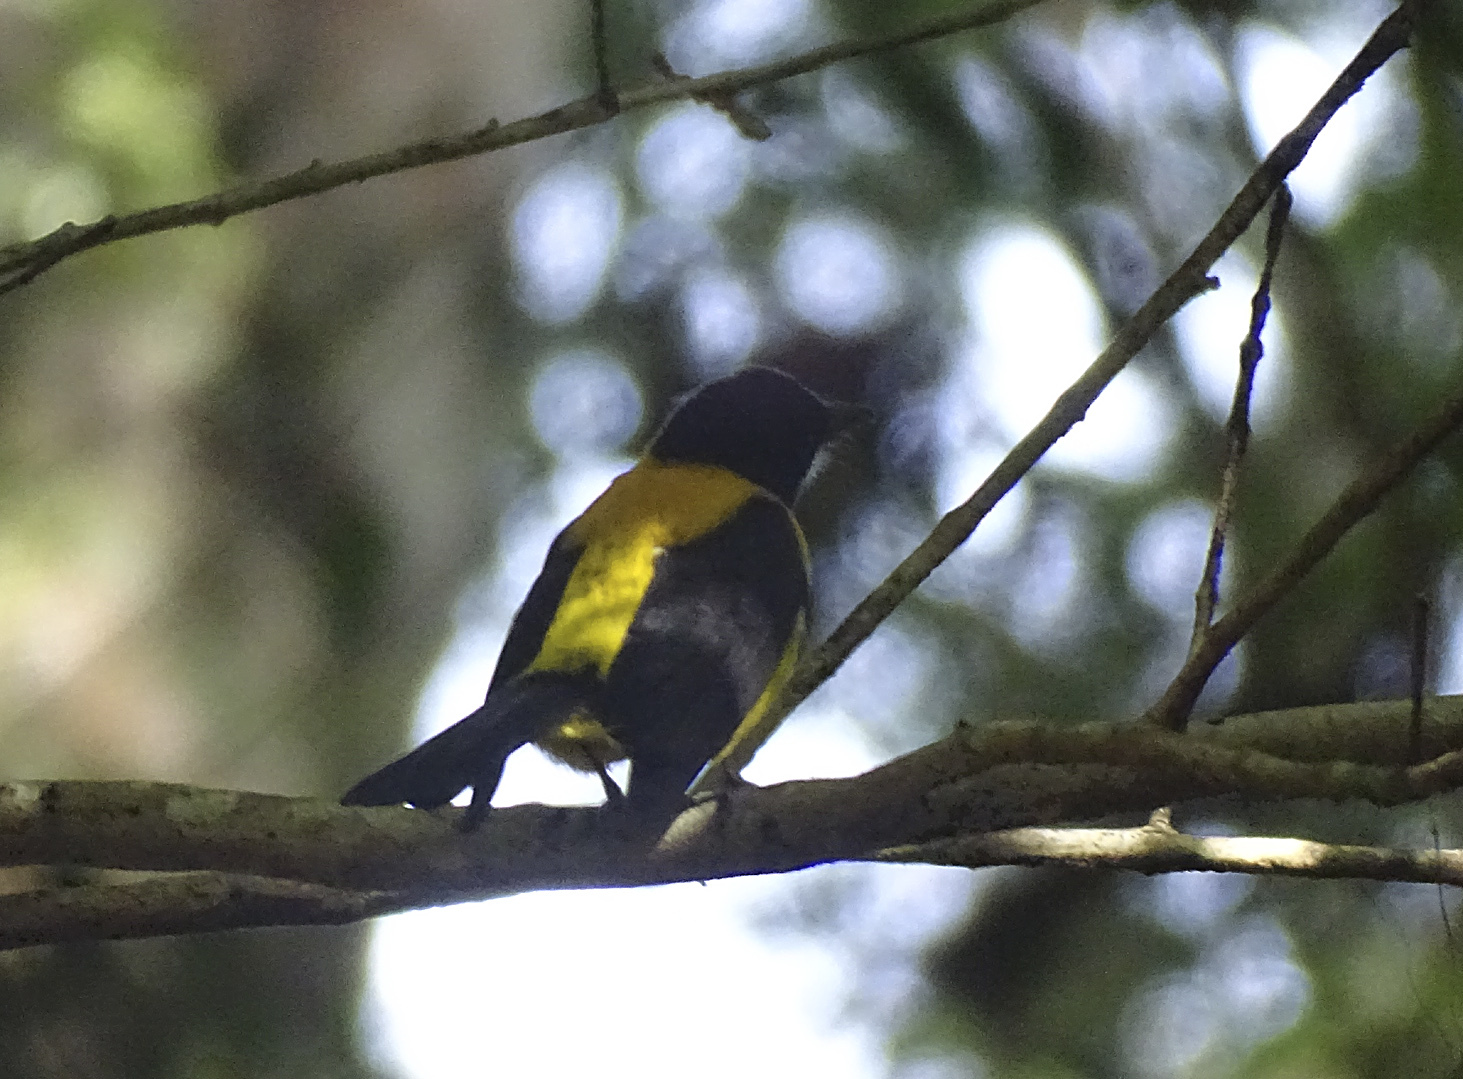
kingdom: Animalia
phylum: Chordata
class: Aves
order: Passeriformes
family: Icteridae
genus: Icterus
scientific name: Icterus prosthemelas
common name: Black-cowled oriole
